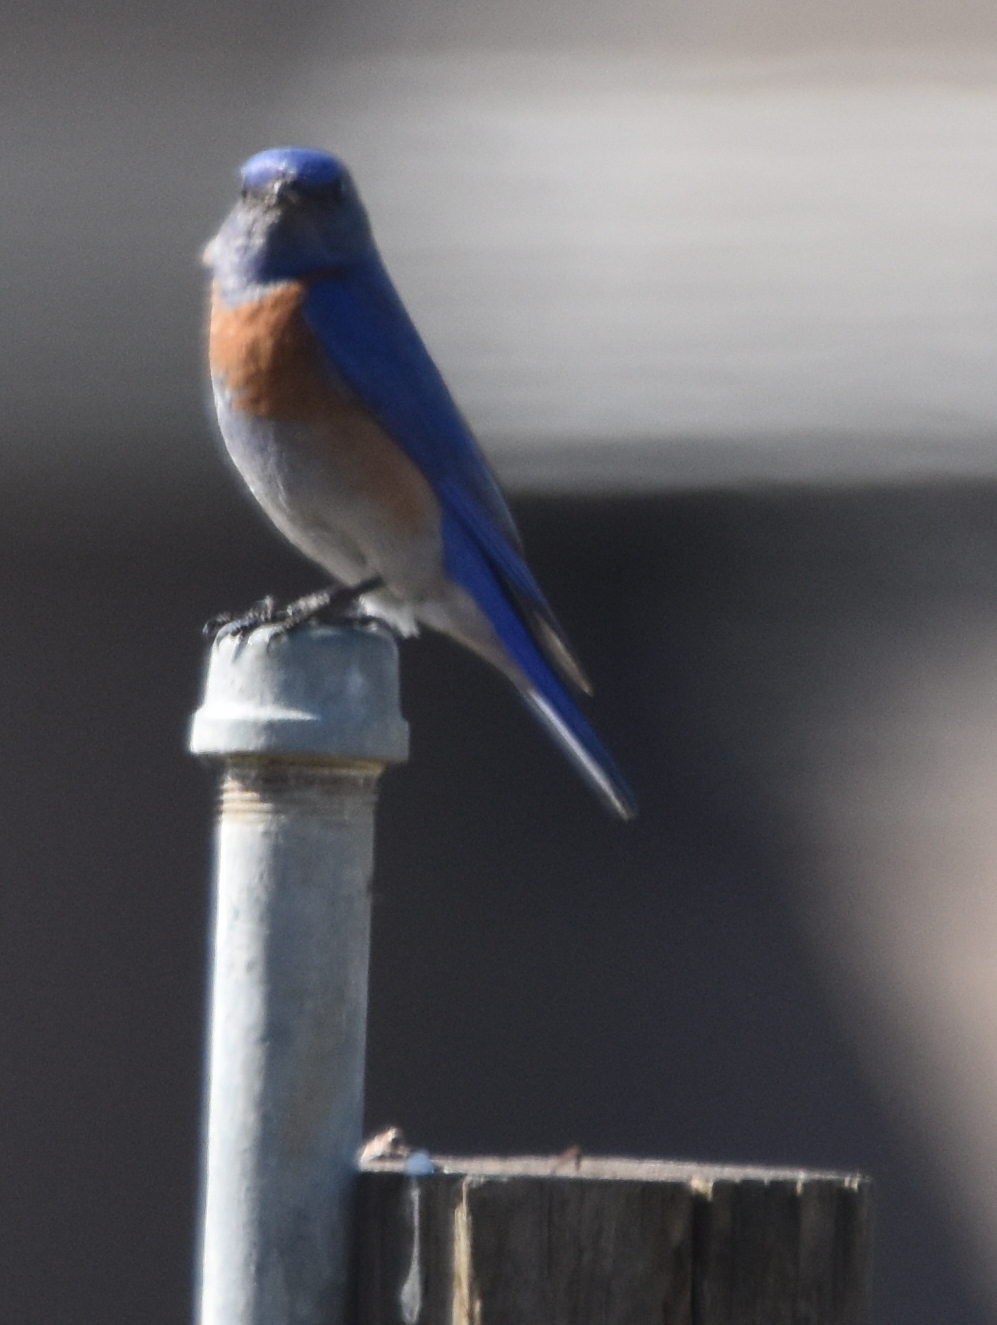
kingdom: Animalia
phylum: Chordata
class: Aves
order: Passeriformes
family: Turdidae
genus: Sialia
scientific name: Sialia mexicana
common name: Western bluebird
